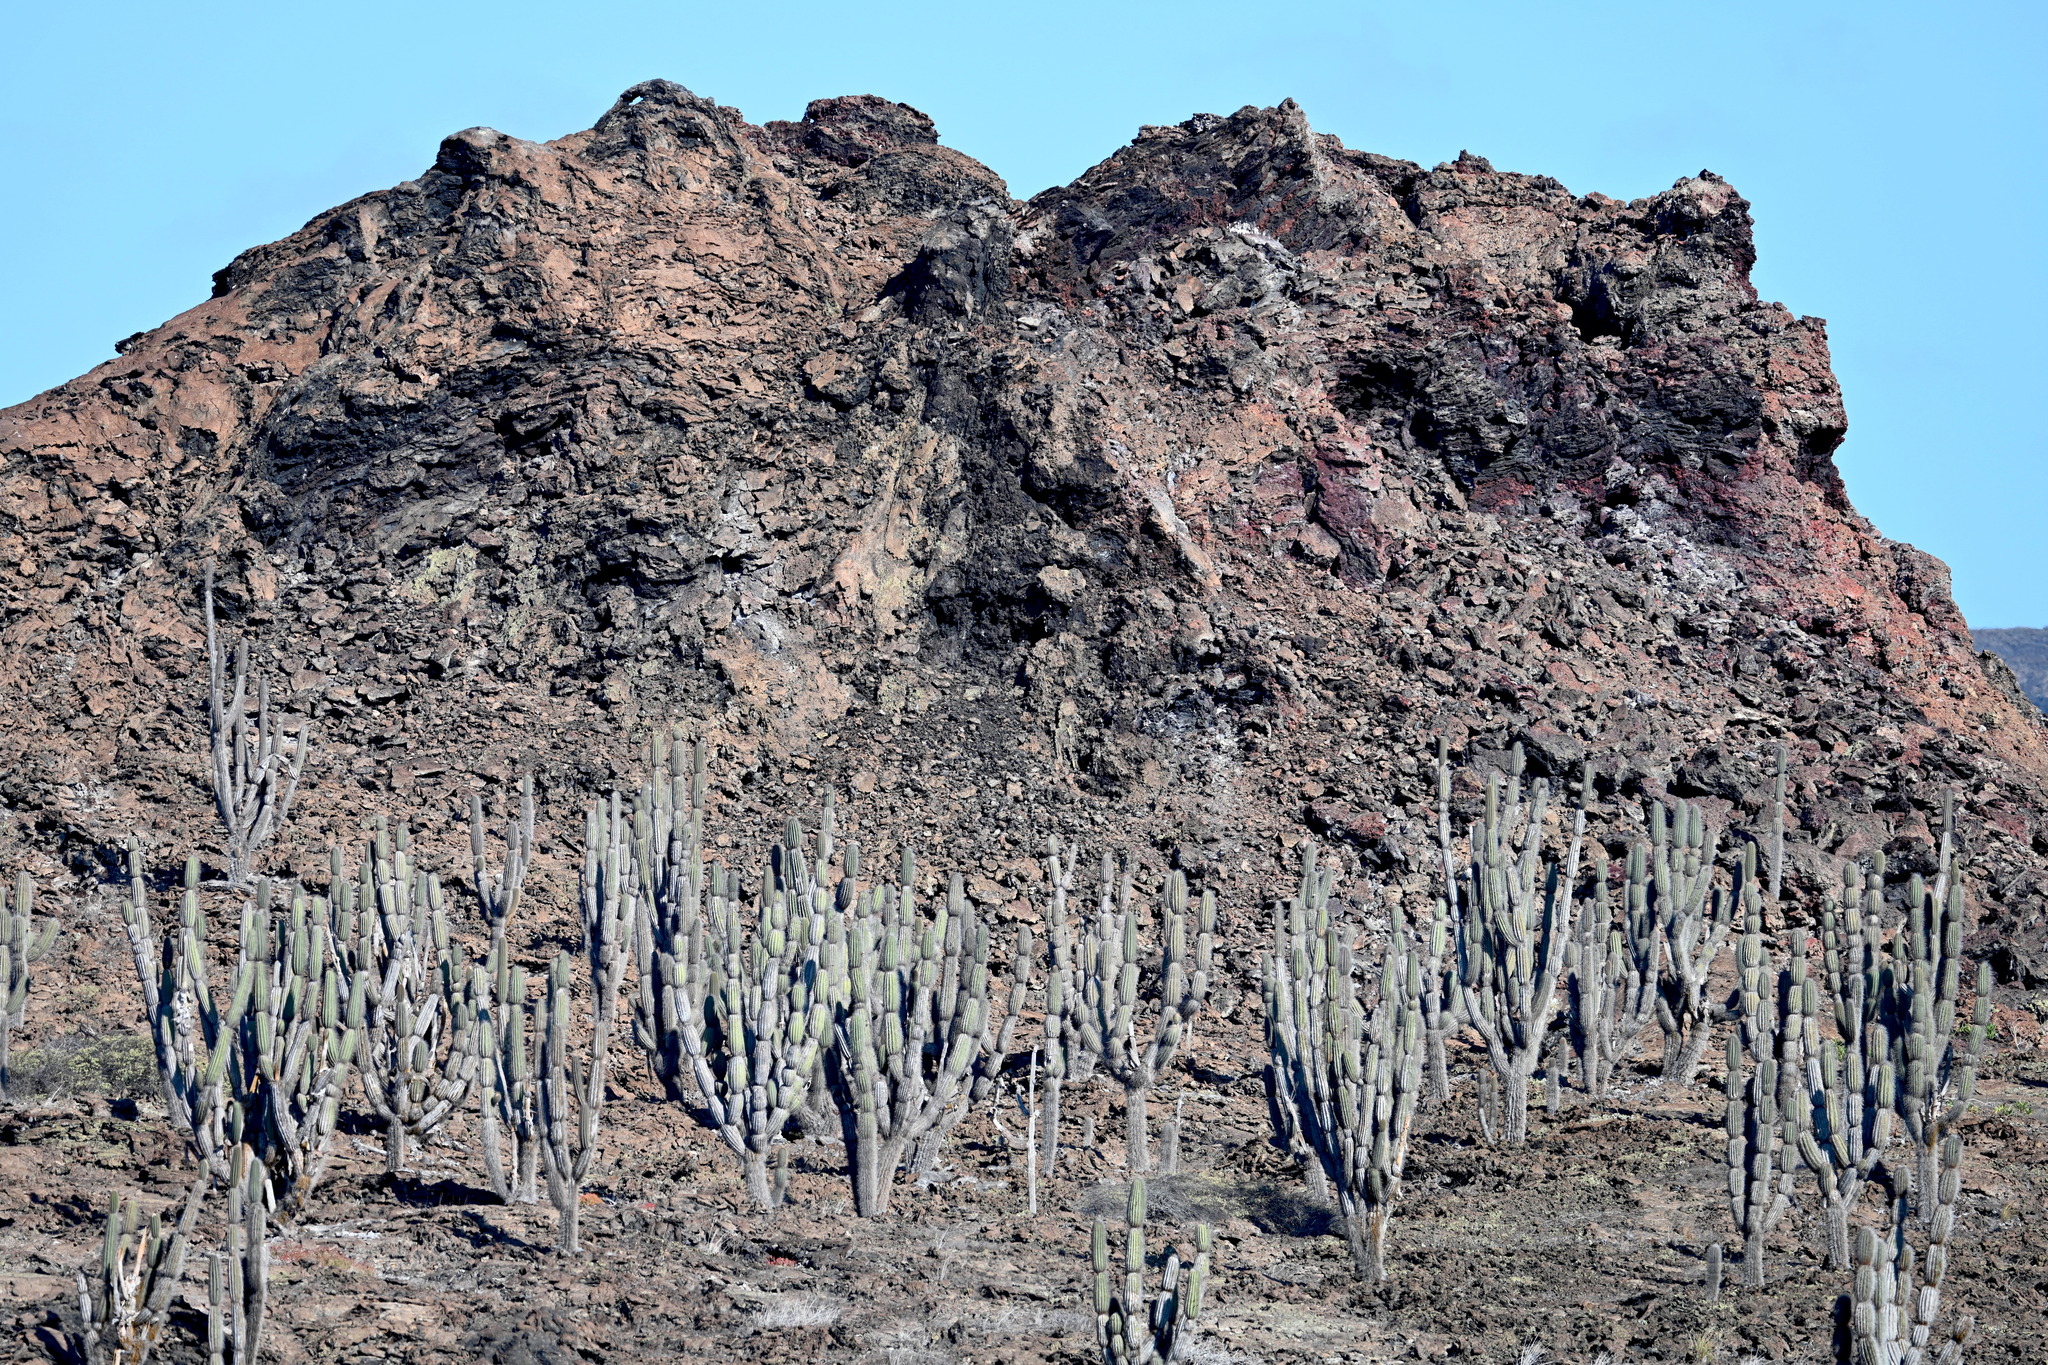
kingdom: Plantae
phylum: Tracheophyta
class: Magnoliopsida
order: Caryophyllales
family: Cactaceae
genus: Jasminocereus
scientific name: Jasminocereus thouarsii
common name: Candelabra cactus
